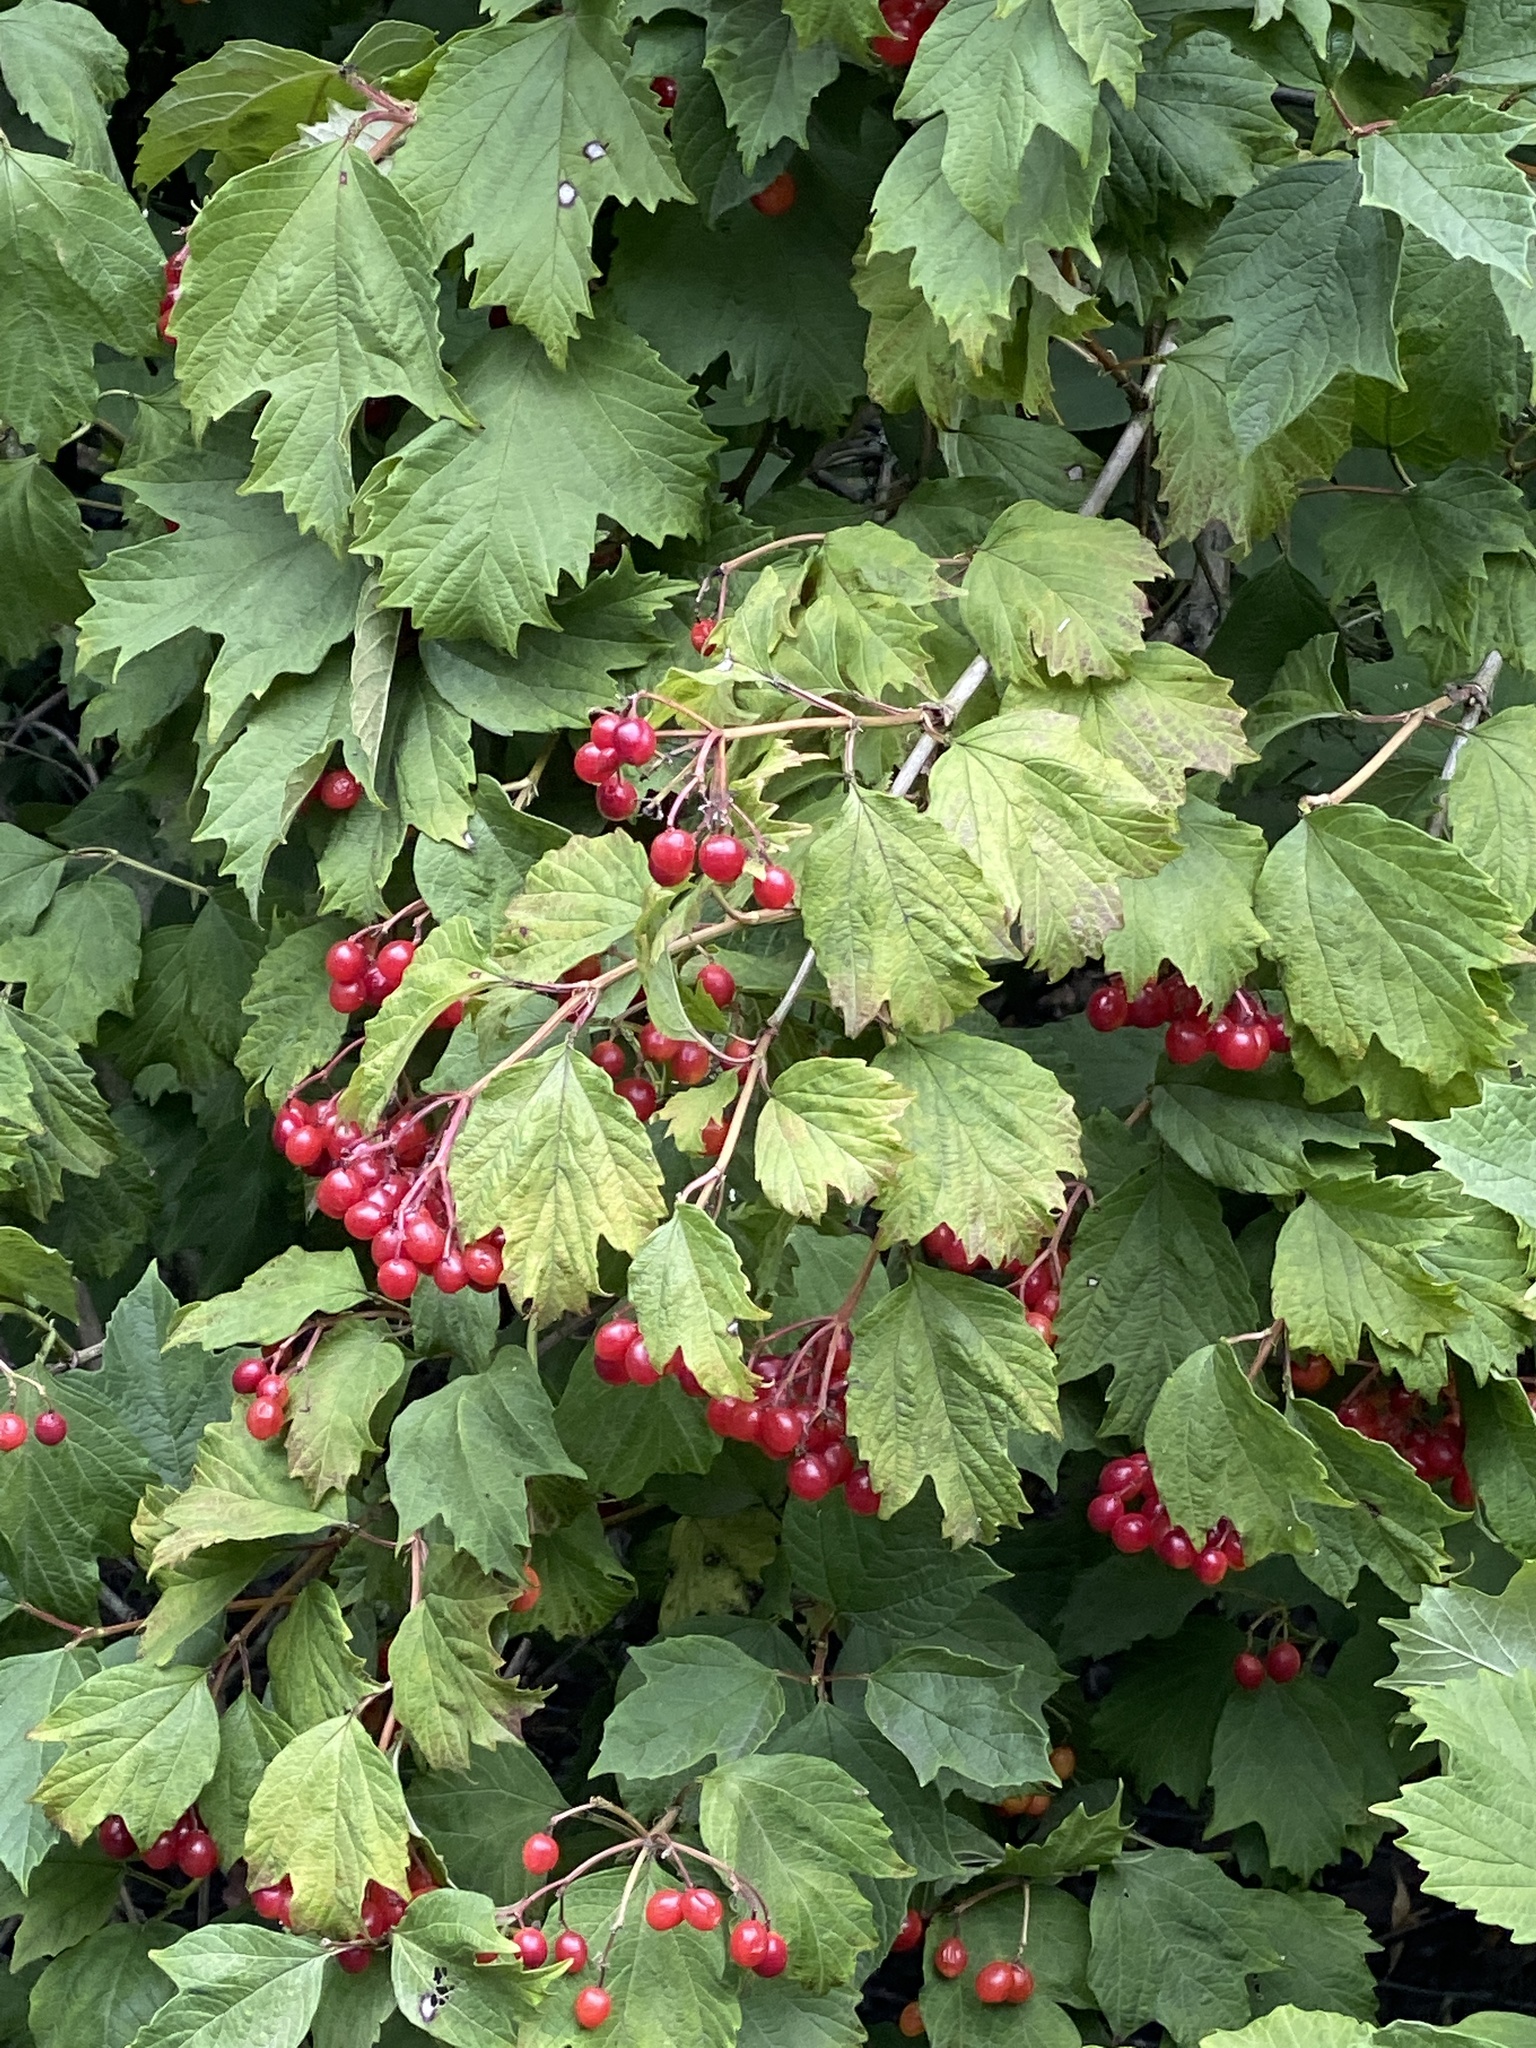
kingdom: Plantae
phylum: Tracheophyta
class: Magnoliopsida
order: Dipsacales
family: Viburnaceae
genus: Viburnum
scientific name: Viburnum opulus
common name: Guelder-rose
